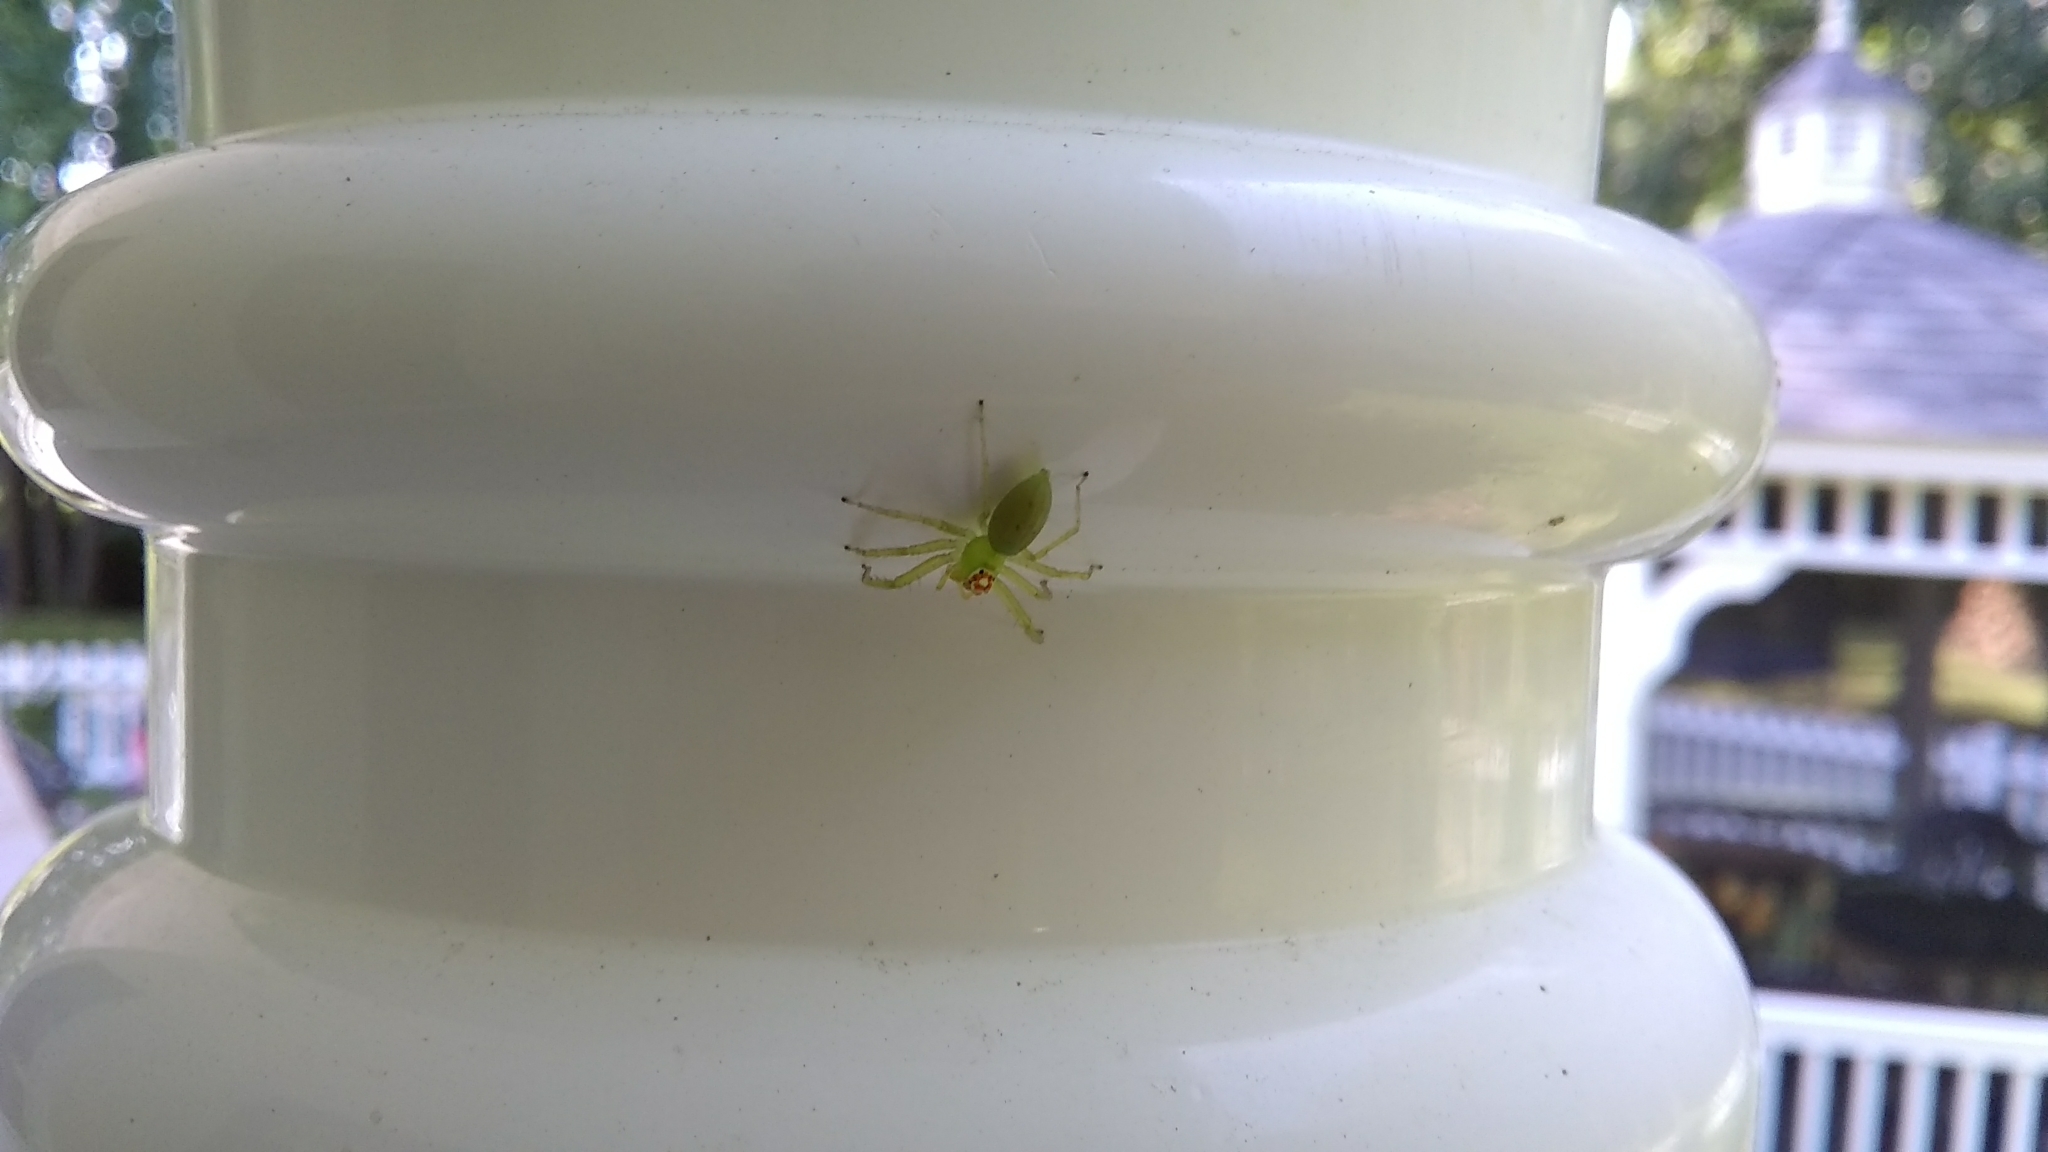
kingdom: Animalia
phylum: Arthropoda
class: Arachnida
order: Araneae
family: Salticidae
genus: Lyssomanes
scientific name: Lyssomanes viridis
